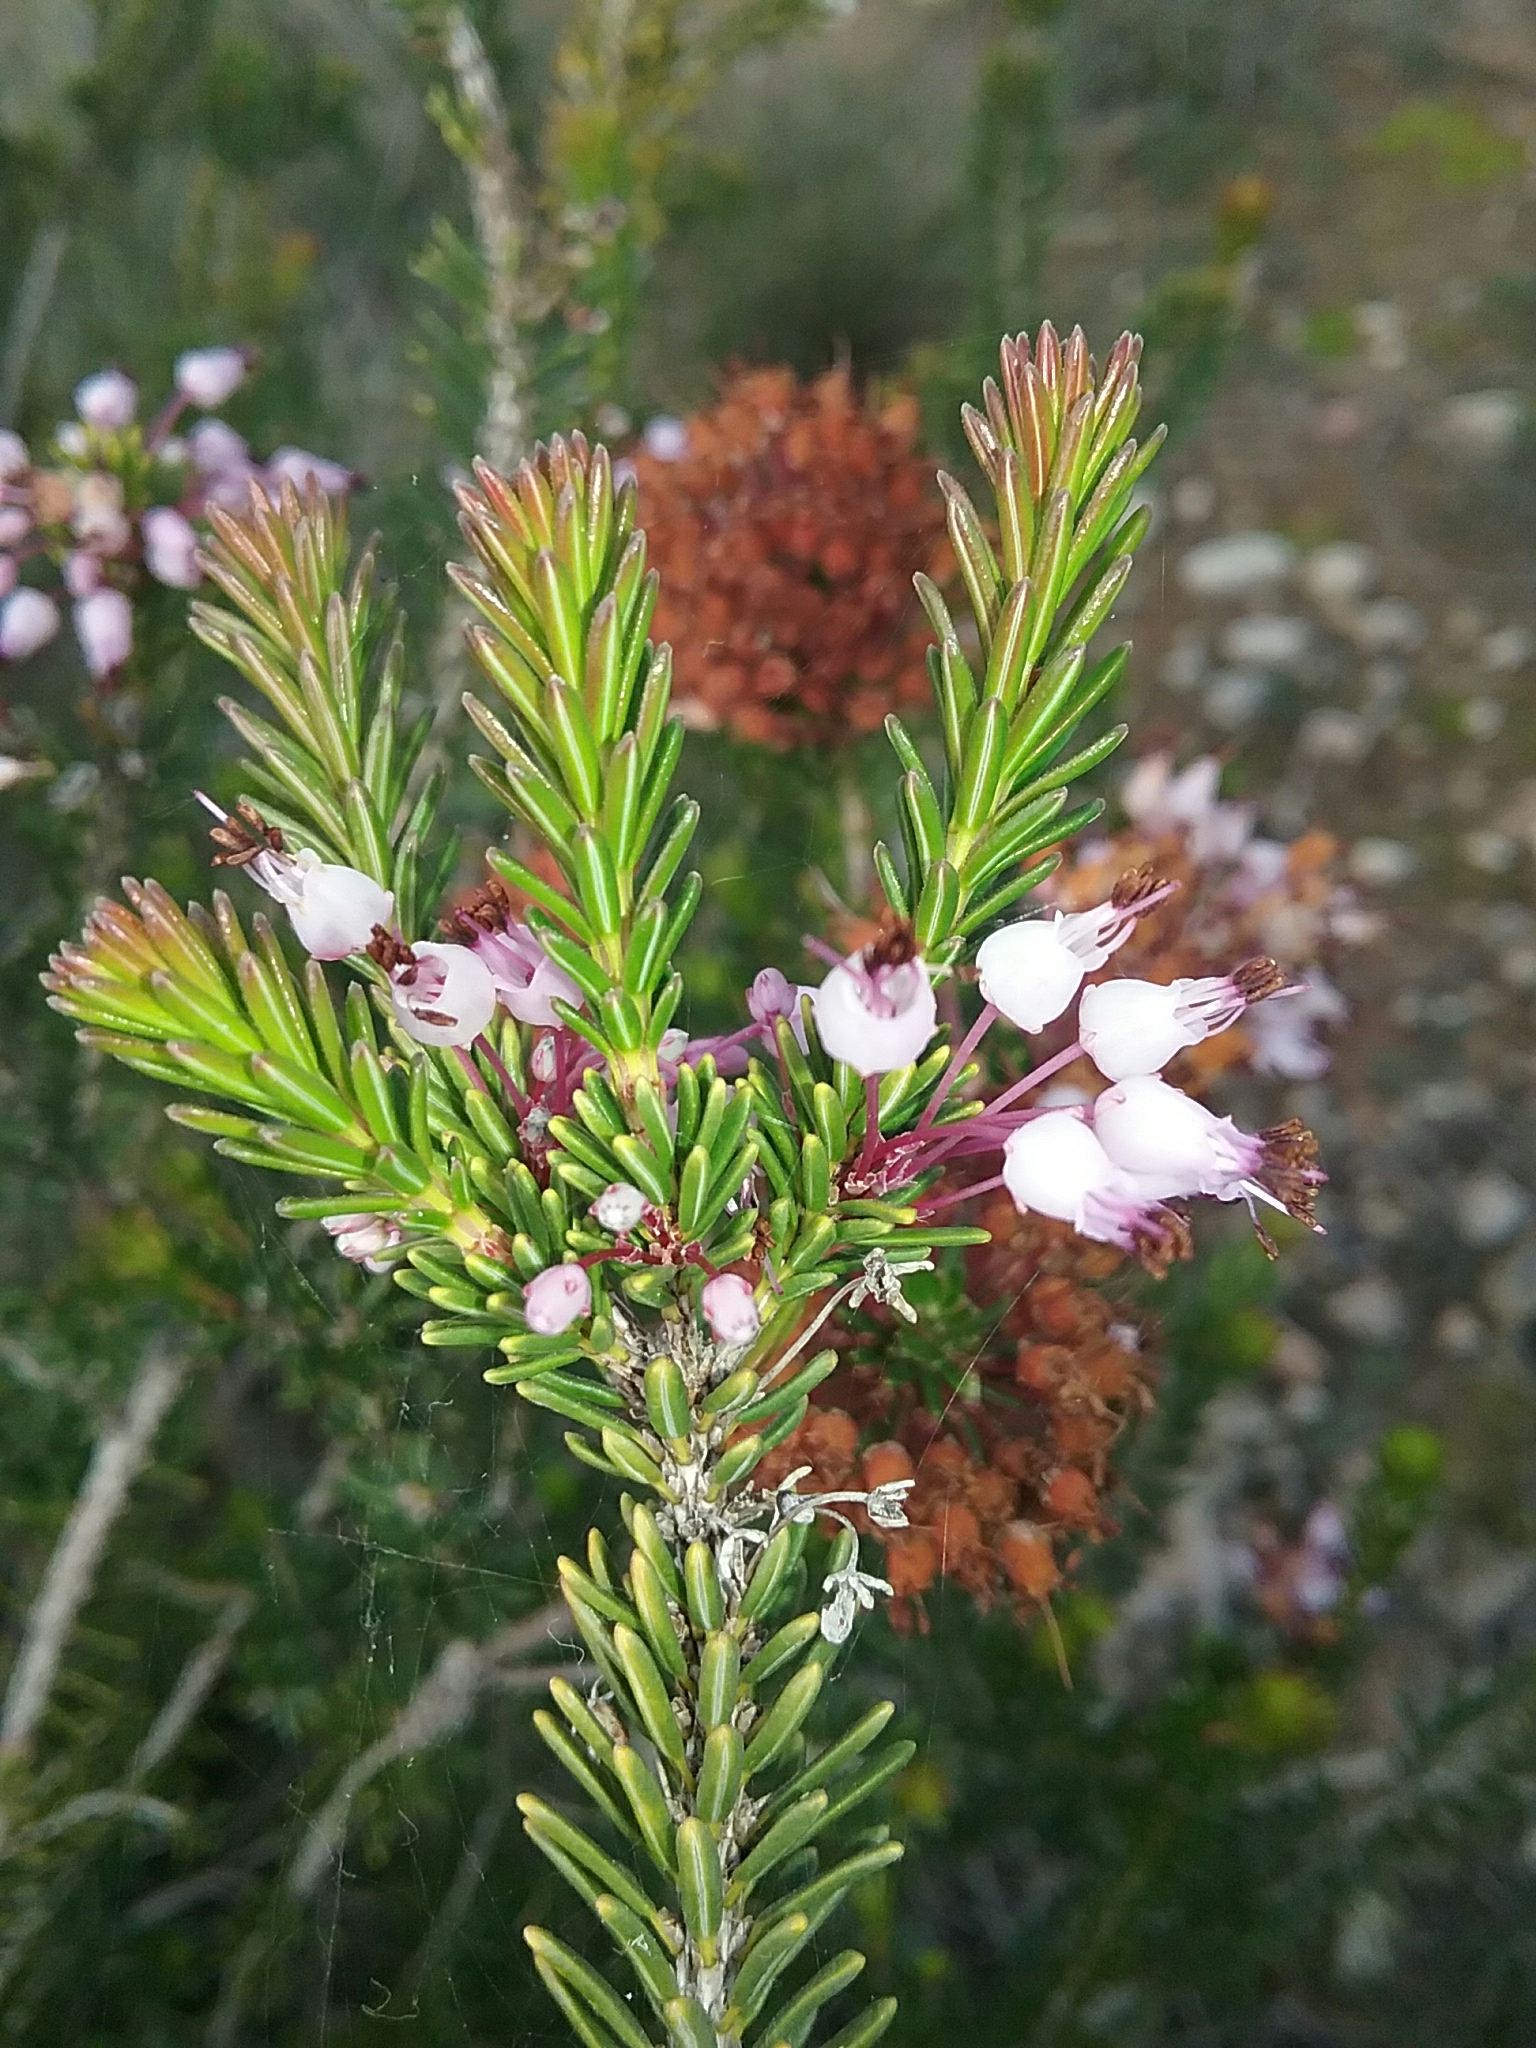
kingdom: Plantae
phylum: Tracheophyta
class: Magnoliopsida
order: Ericales
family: Ericaceae
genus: Erica
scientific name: Erica multiflora
